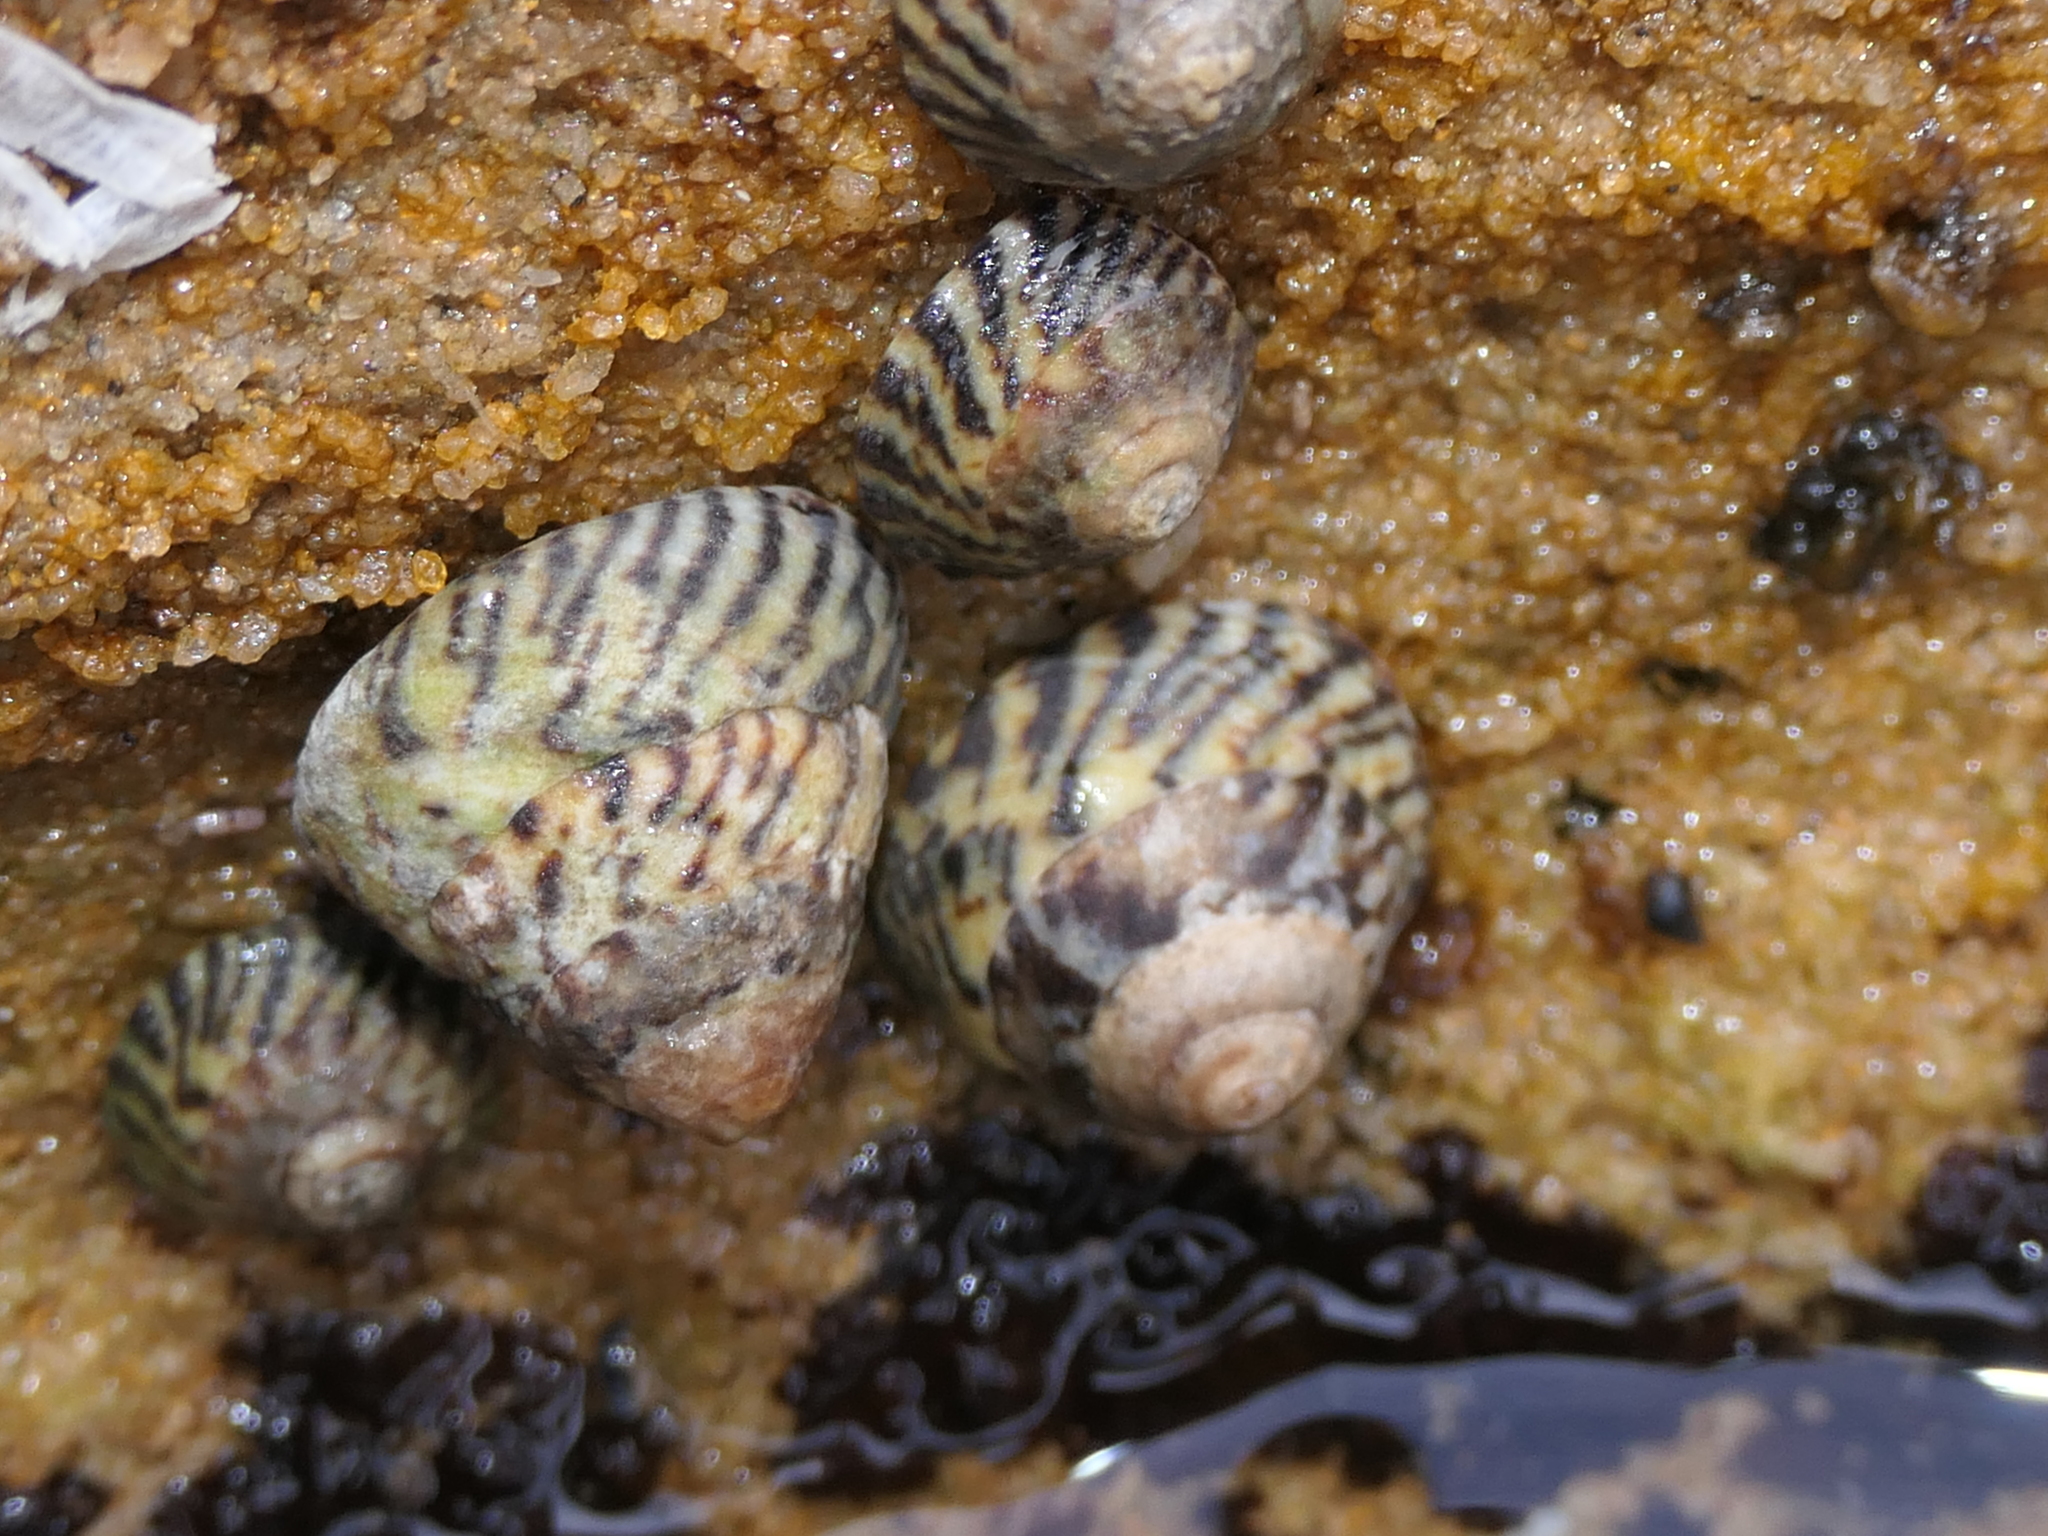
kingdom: Animalia
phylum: Mollusca
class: Gastropoda
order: Littorinimorpha
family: Littorinidae
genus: Bembicium
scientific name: Bembicium nanum
